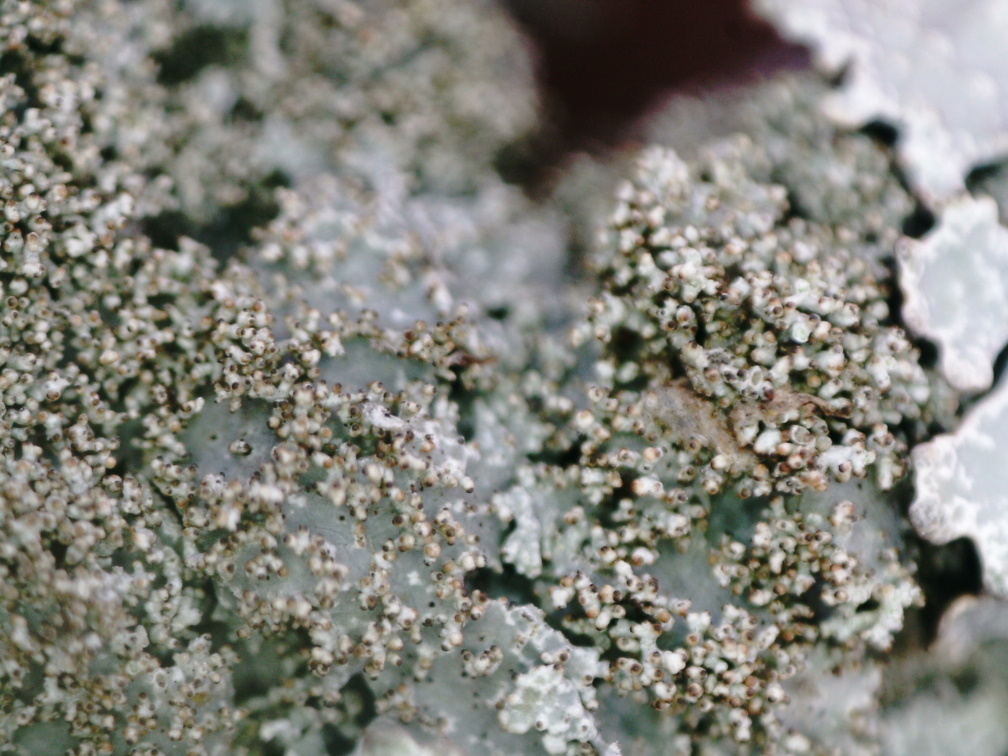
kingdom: Fungi
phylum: Ascomycota
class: Lecanoromycetes
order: Lecanorales
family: Parmeliaceae
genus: Parmelia
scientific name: Parmelia saxatilis
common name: Salted shield lichen
